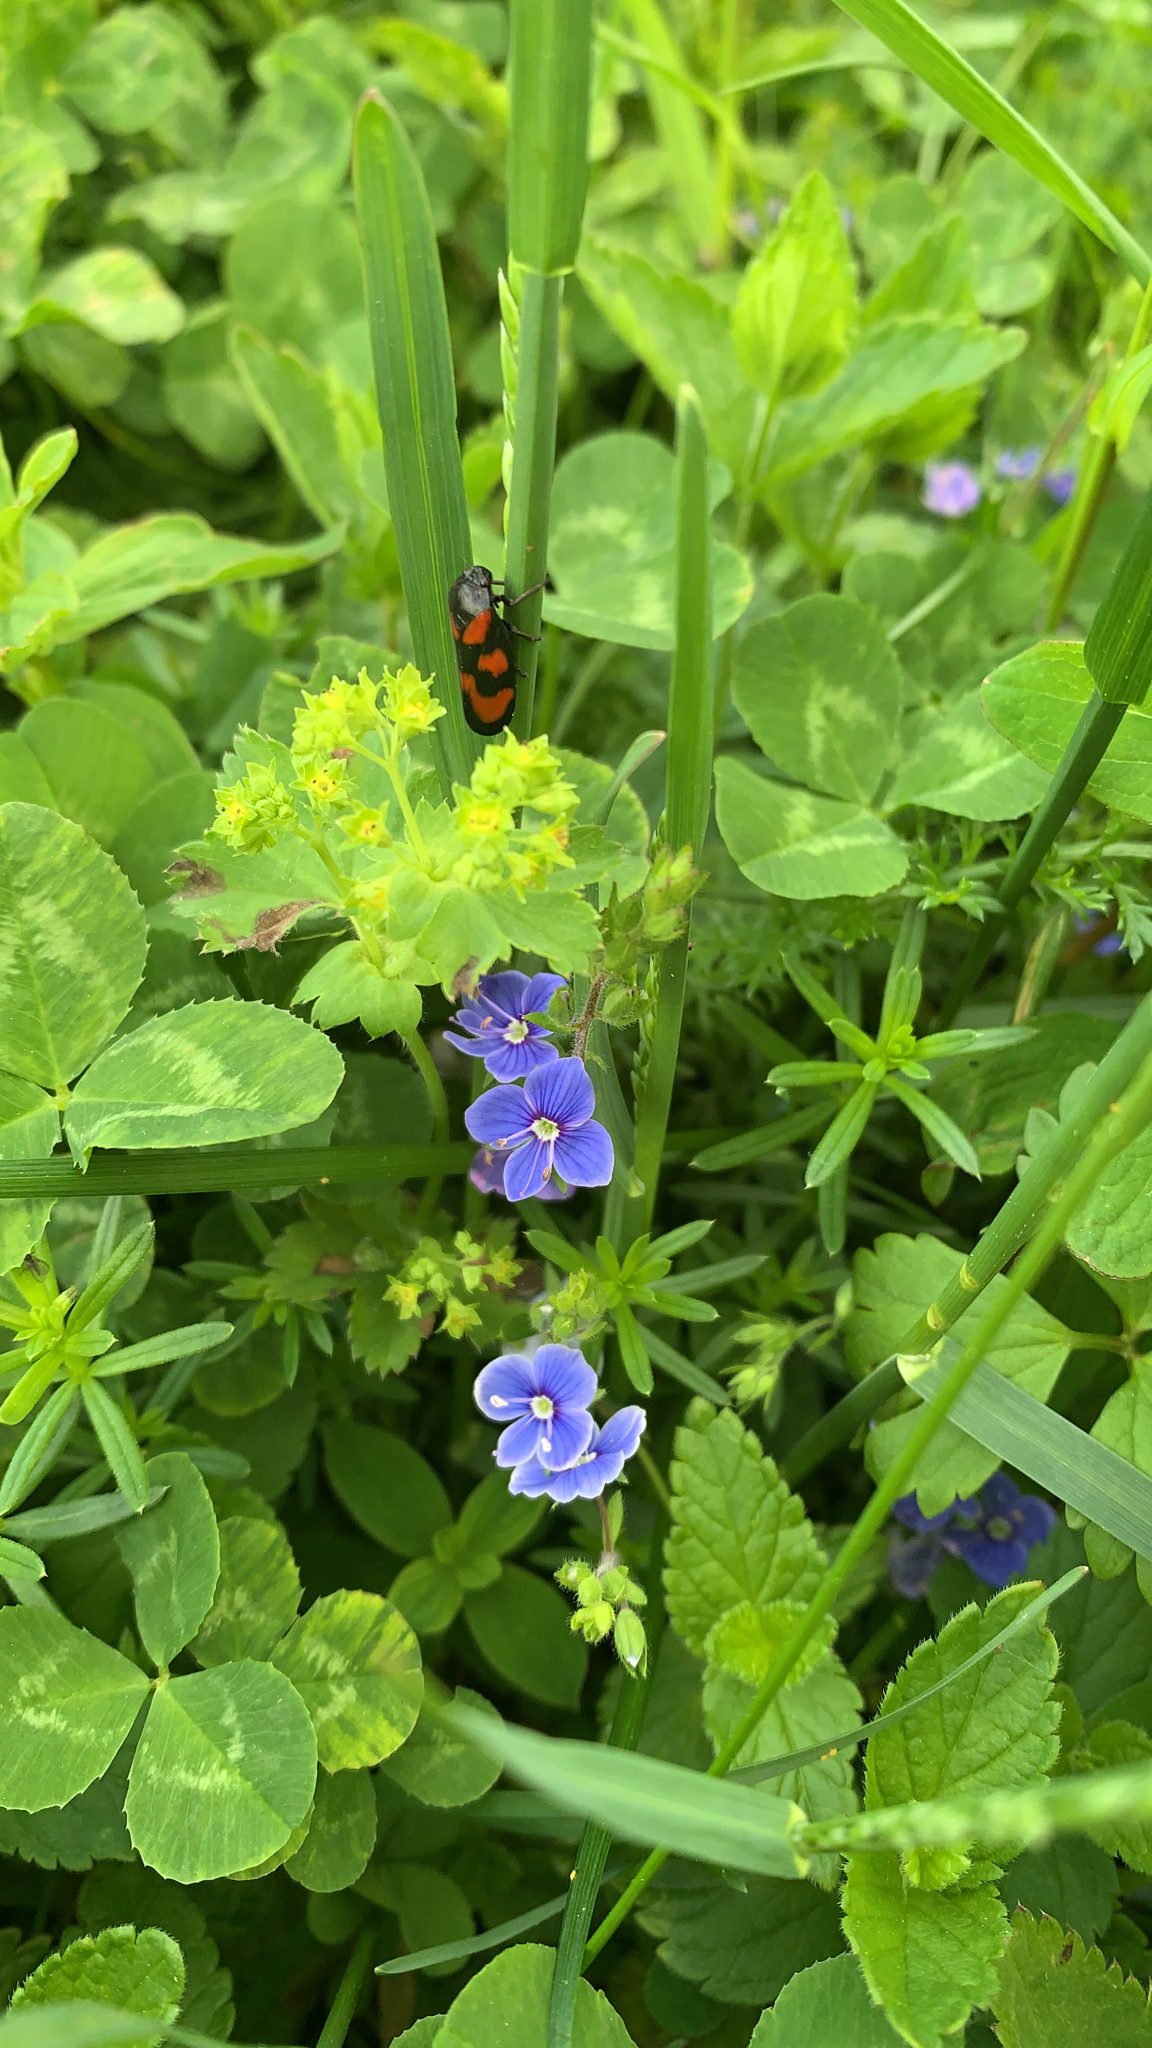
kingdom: Animalia
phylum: Arthropoda
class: Insecta
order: Hemiptera
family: Cercopidae
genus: Cercopis
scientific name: Cercopis vulnerata
